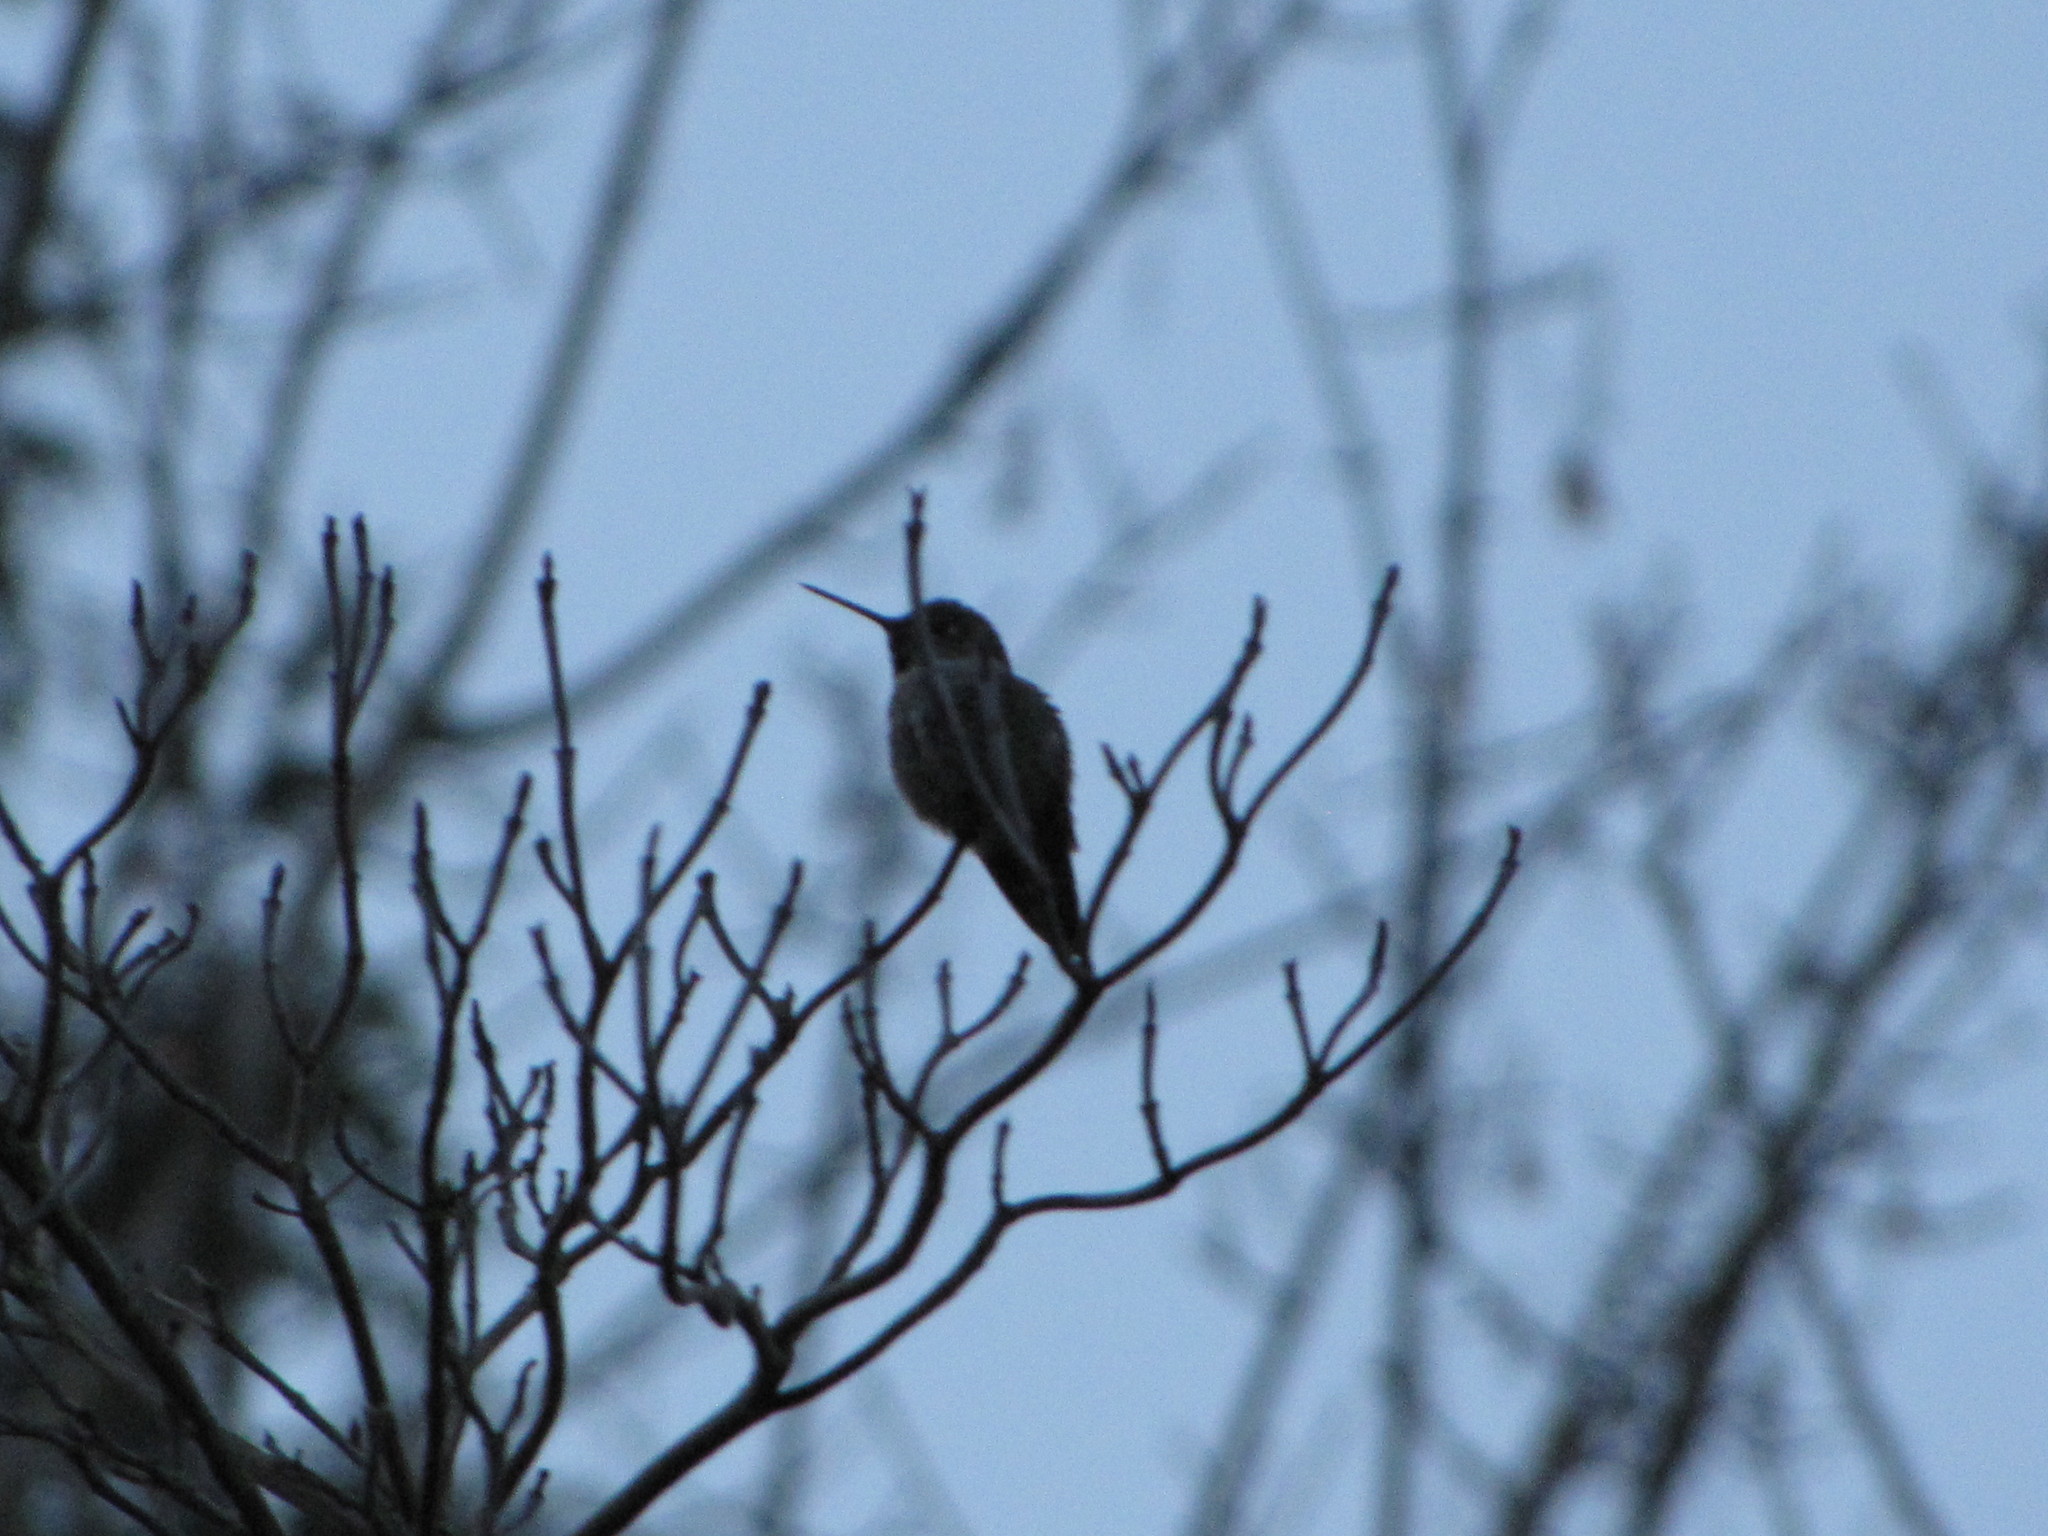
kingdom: Animalia
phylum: Chordata
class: Aves
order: Apodiformes
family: Trochilidae
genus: Calypte
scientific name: Calypte anna
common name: Anna's hummingbird
